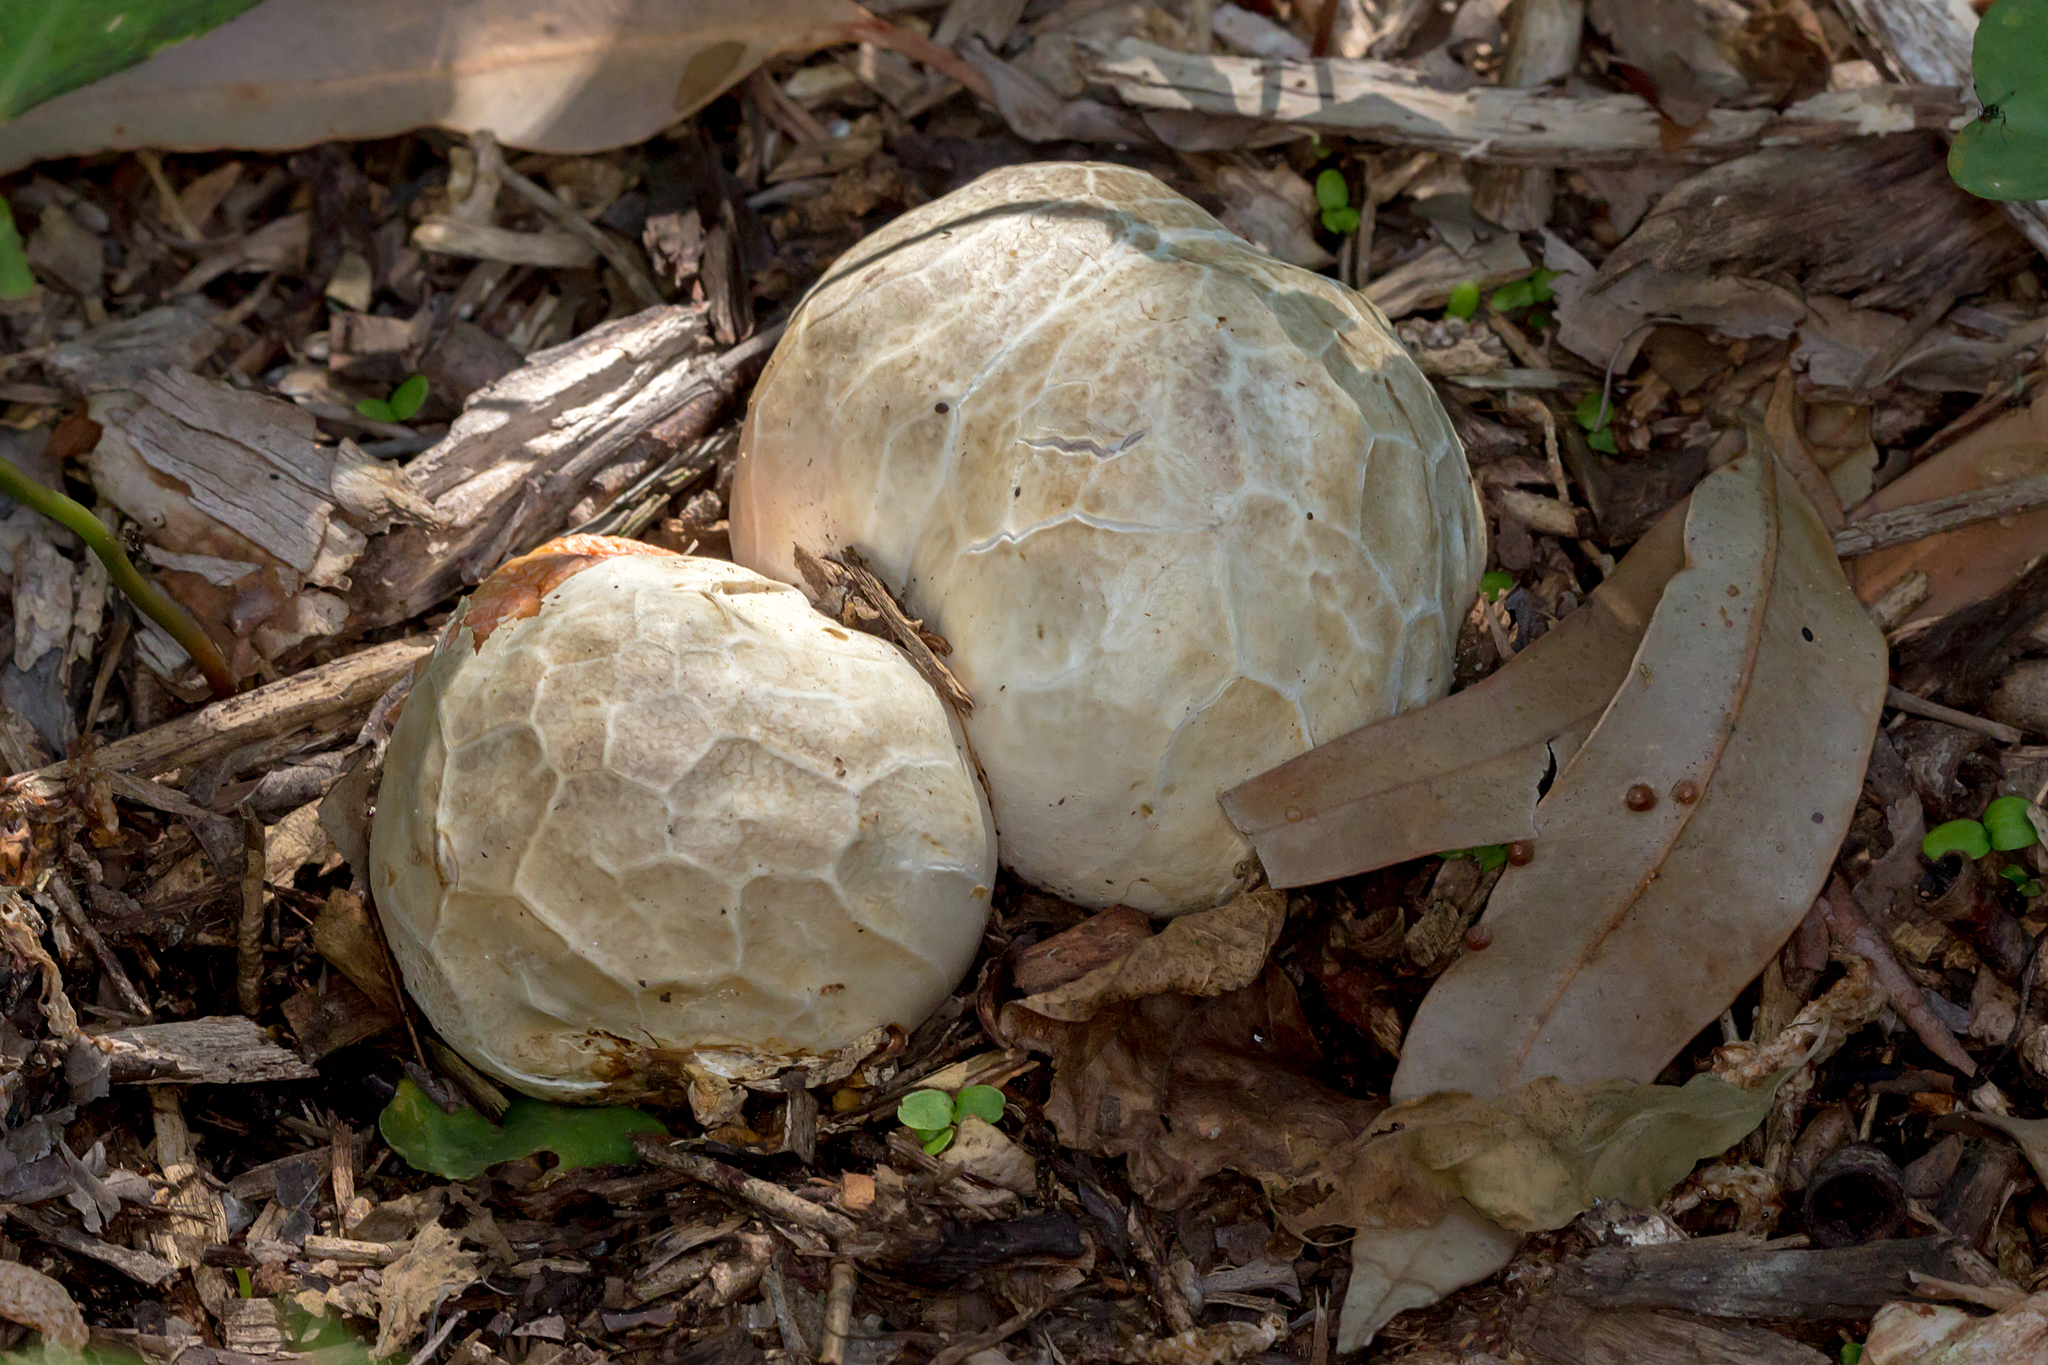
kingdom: Fungi
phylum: Basidiomycota
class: Agaricomycetes
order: Phallales
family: Phallaceae
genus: Clathrus
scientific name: Clathrus ruber
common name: Red cage
